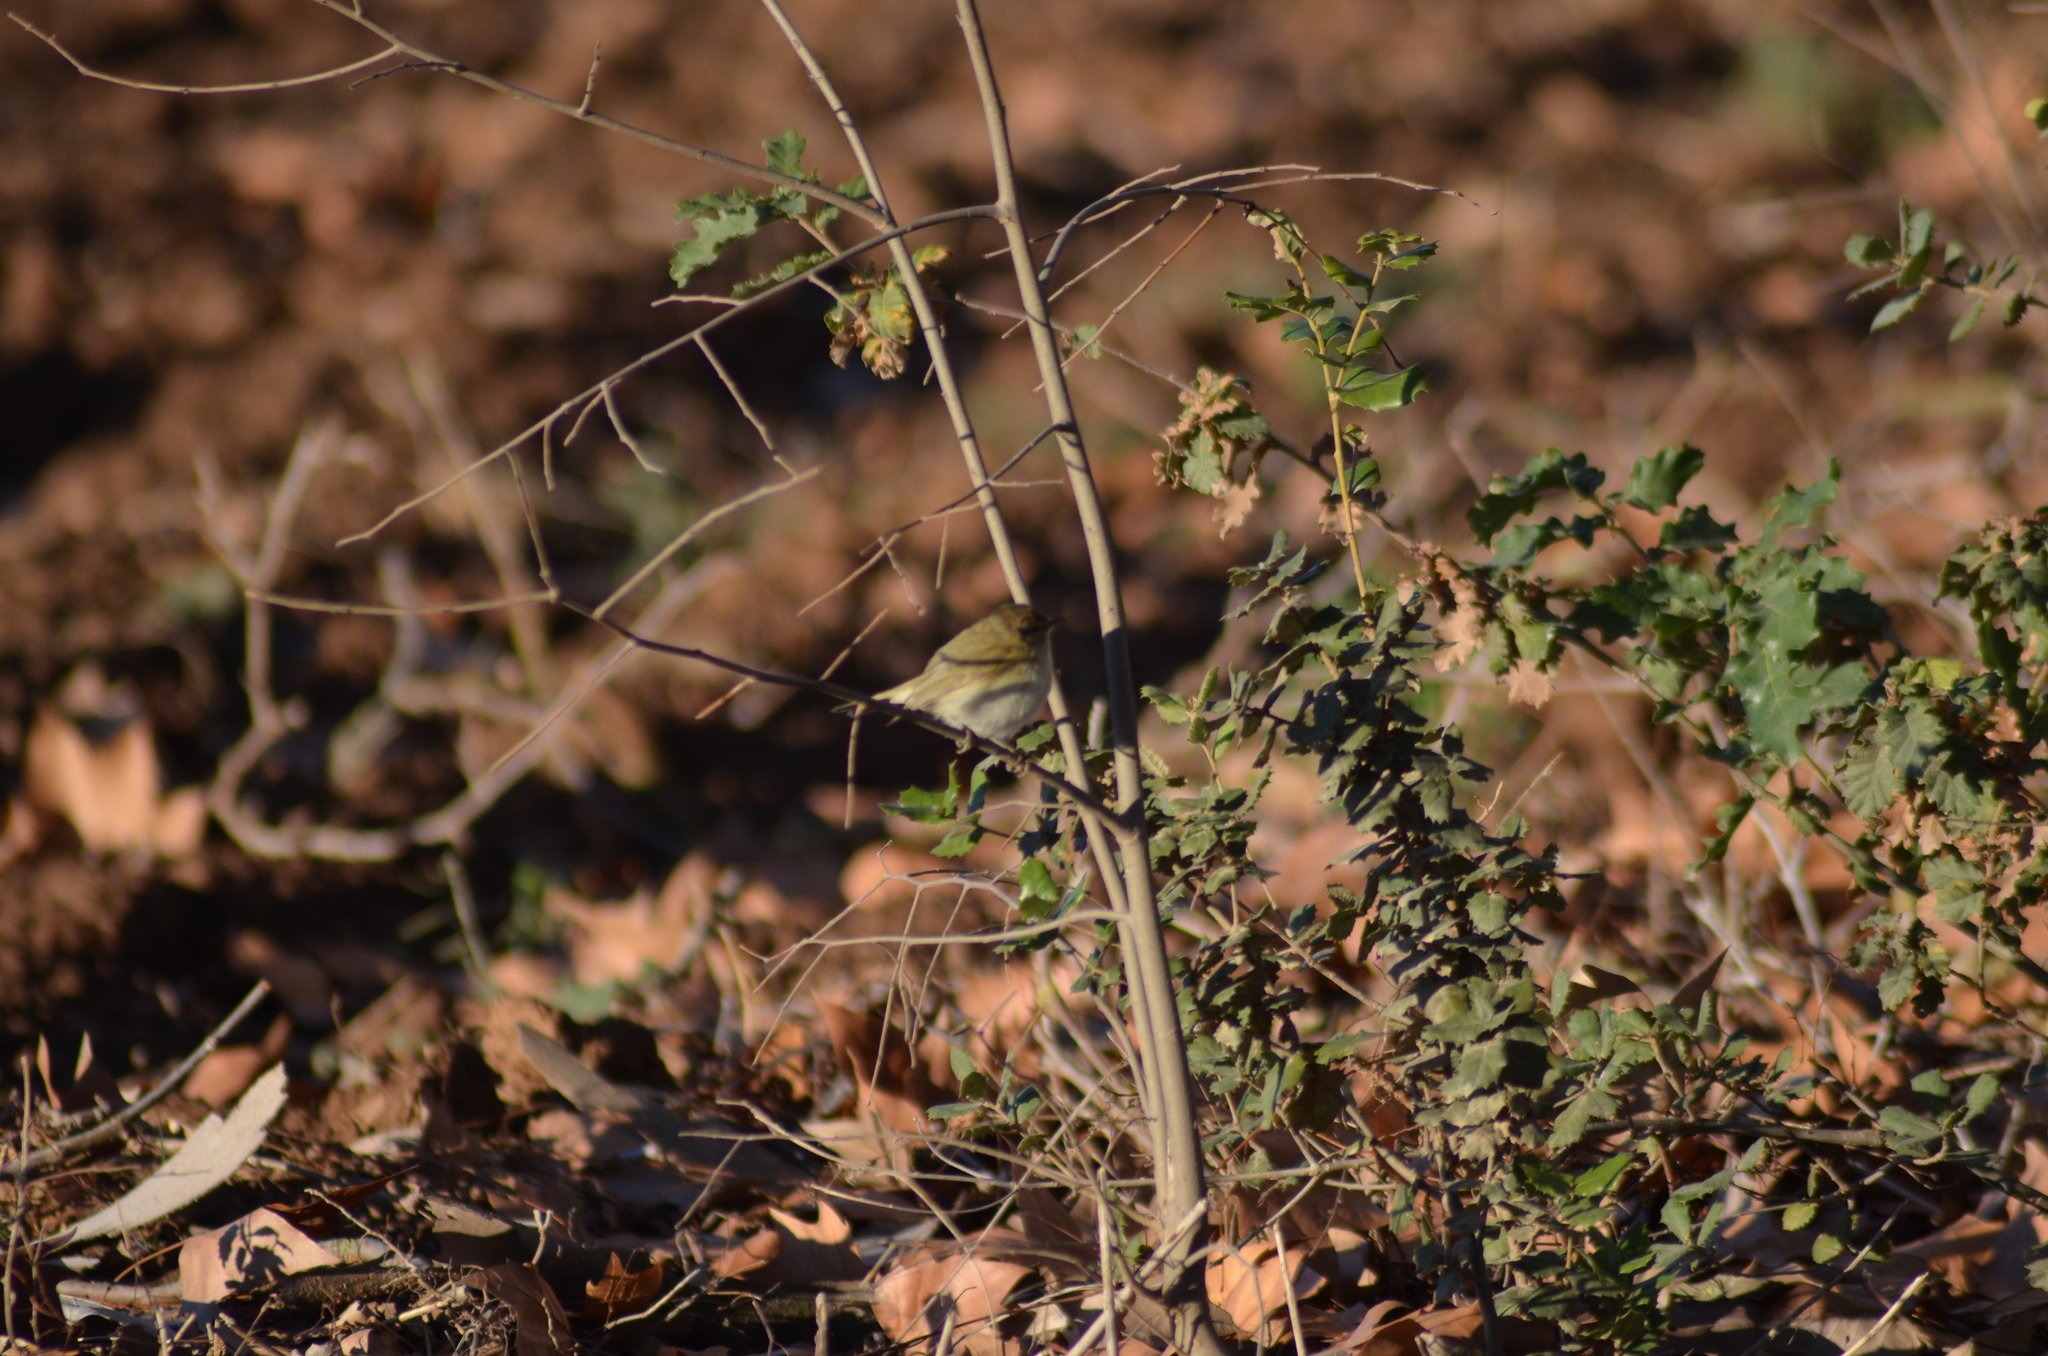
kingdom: Animalia
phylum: Chordata
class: Aves
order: Passeriformes
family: Phylloscopidae
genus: Phylloscopus
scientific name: Phylloscopus collybita
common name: Common chiffchaff
